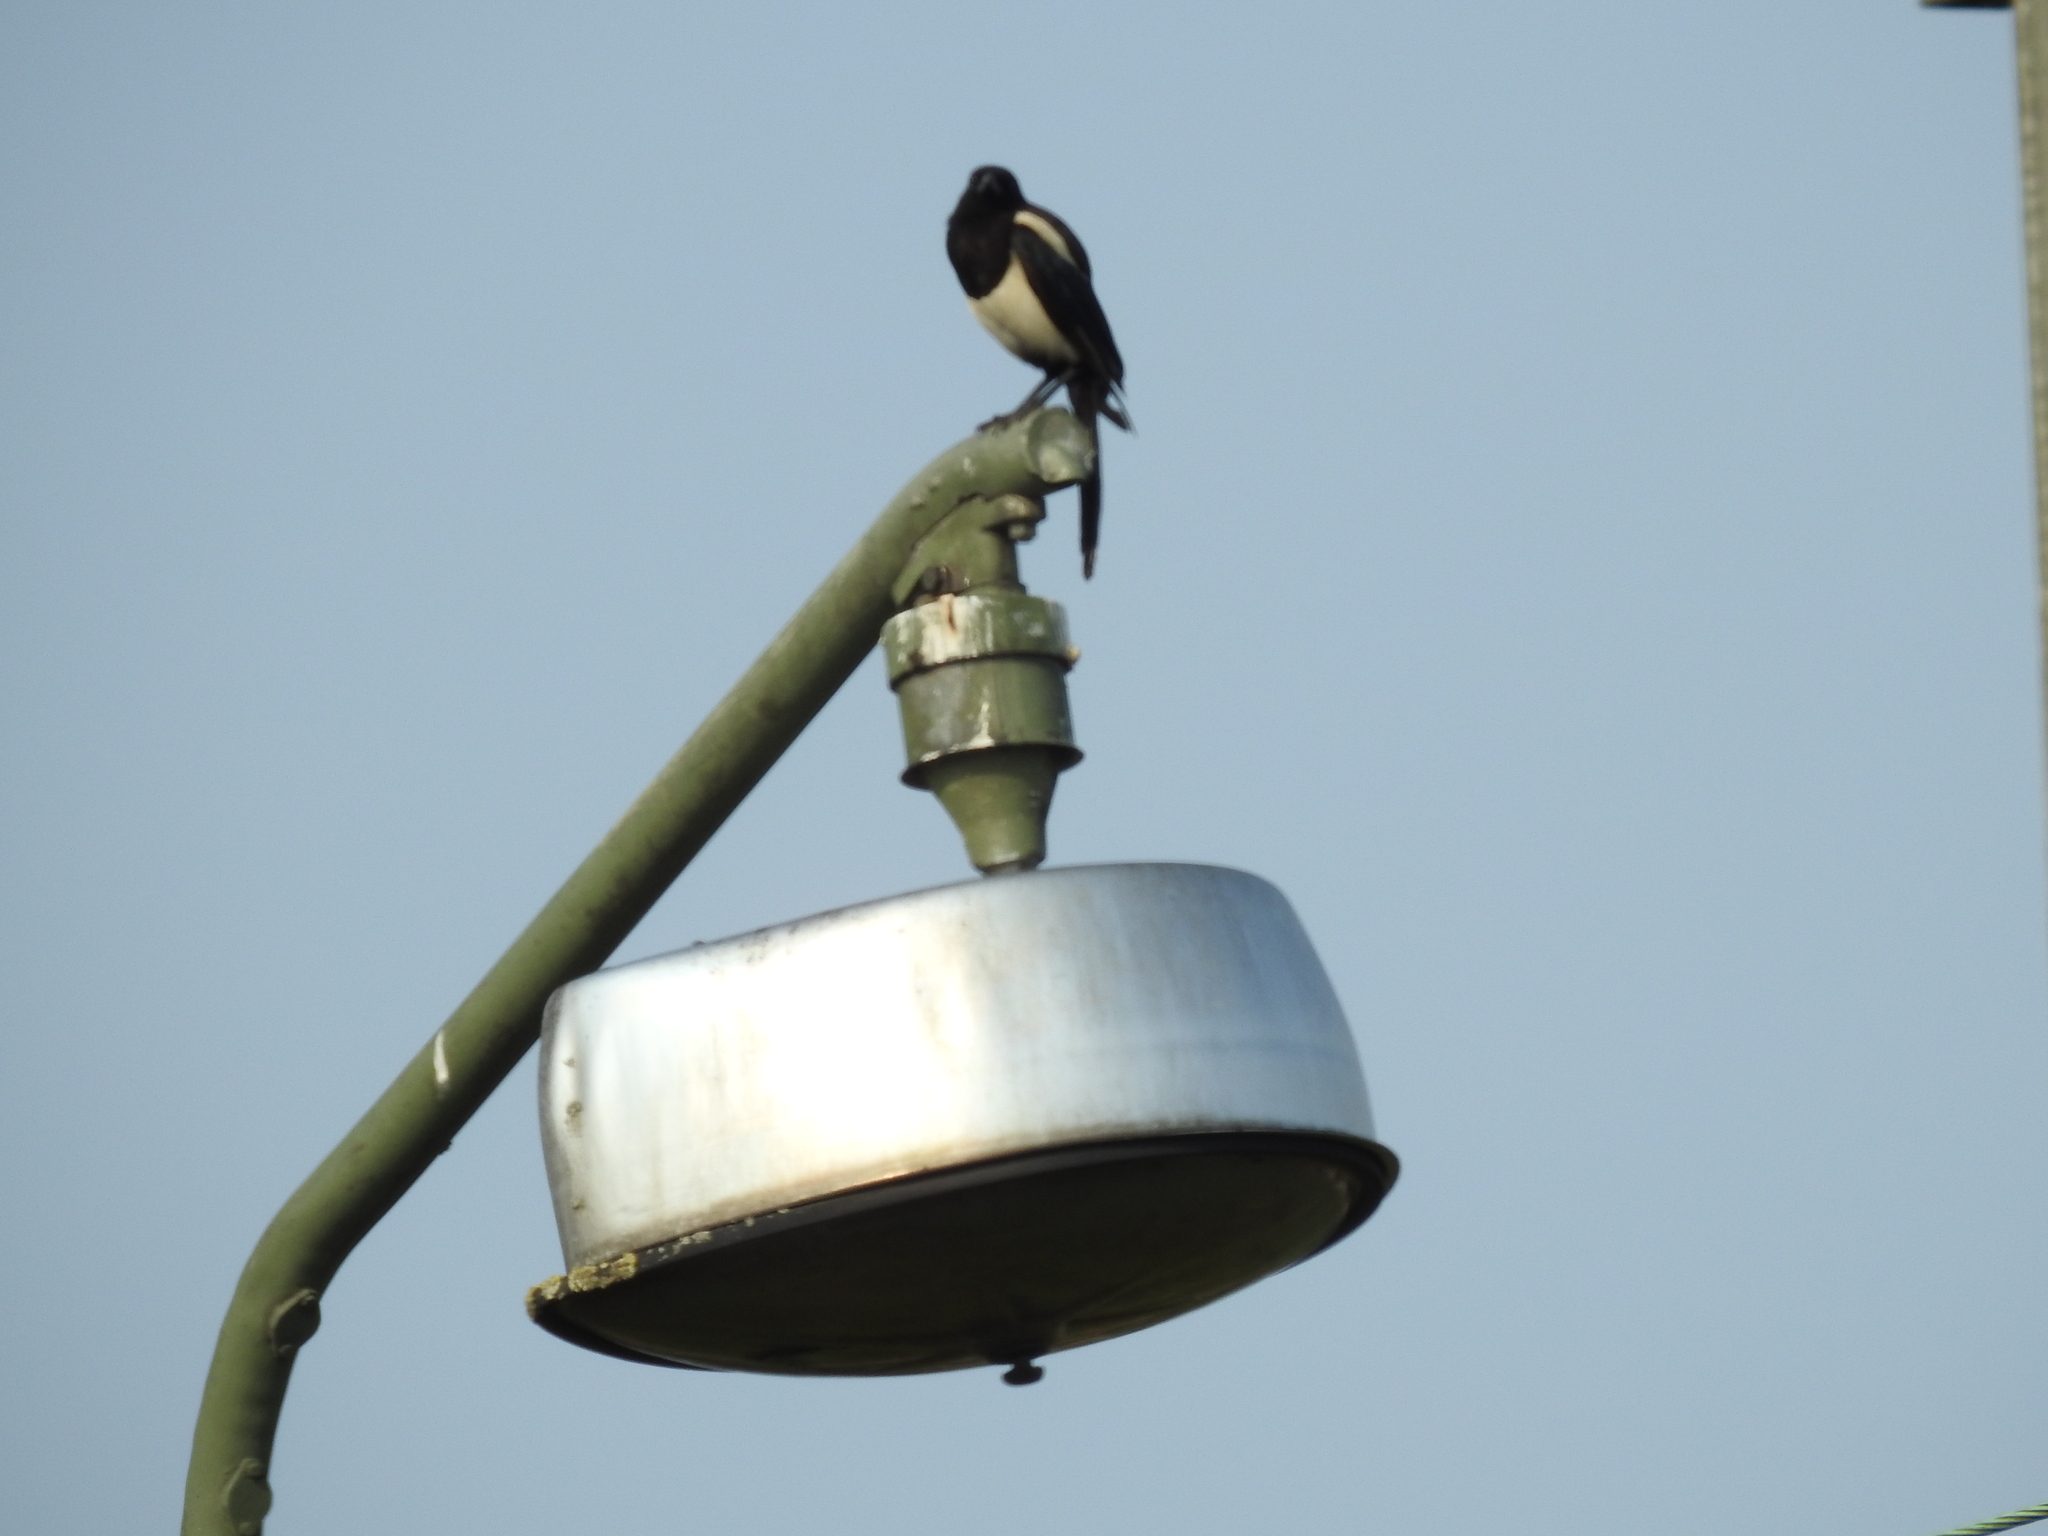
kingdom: Animalia
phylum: Chordata
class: Aves
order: Passeriformes
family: Corvidae
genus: Pica
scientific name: Pica pica
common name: Eurasian magpie
